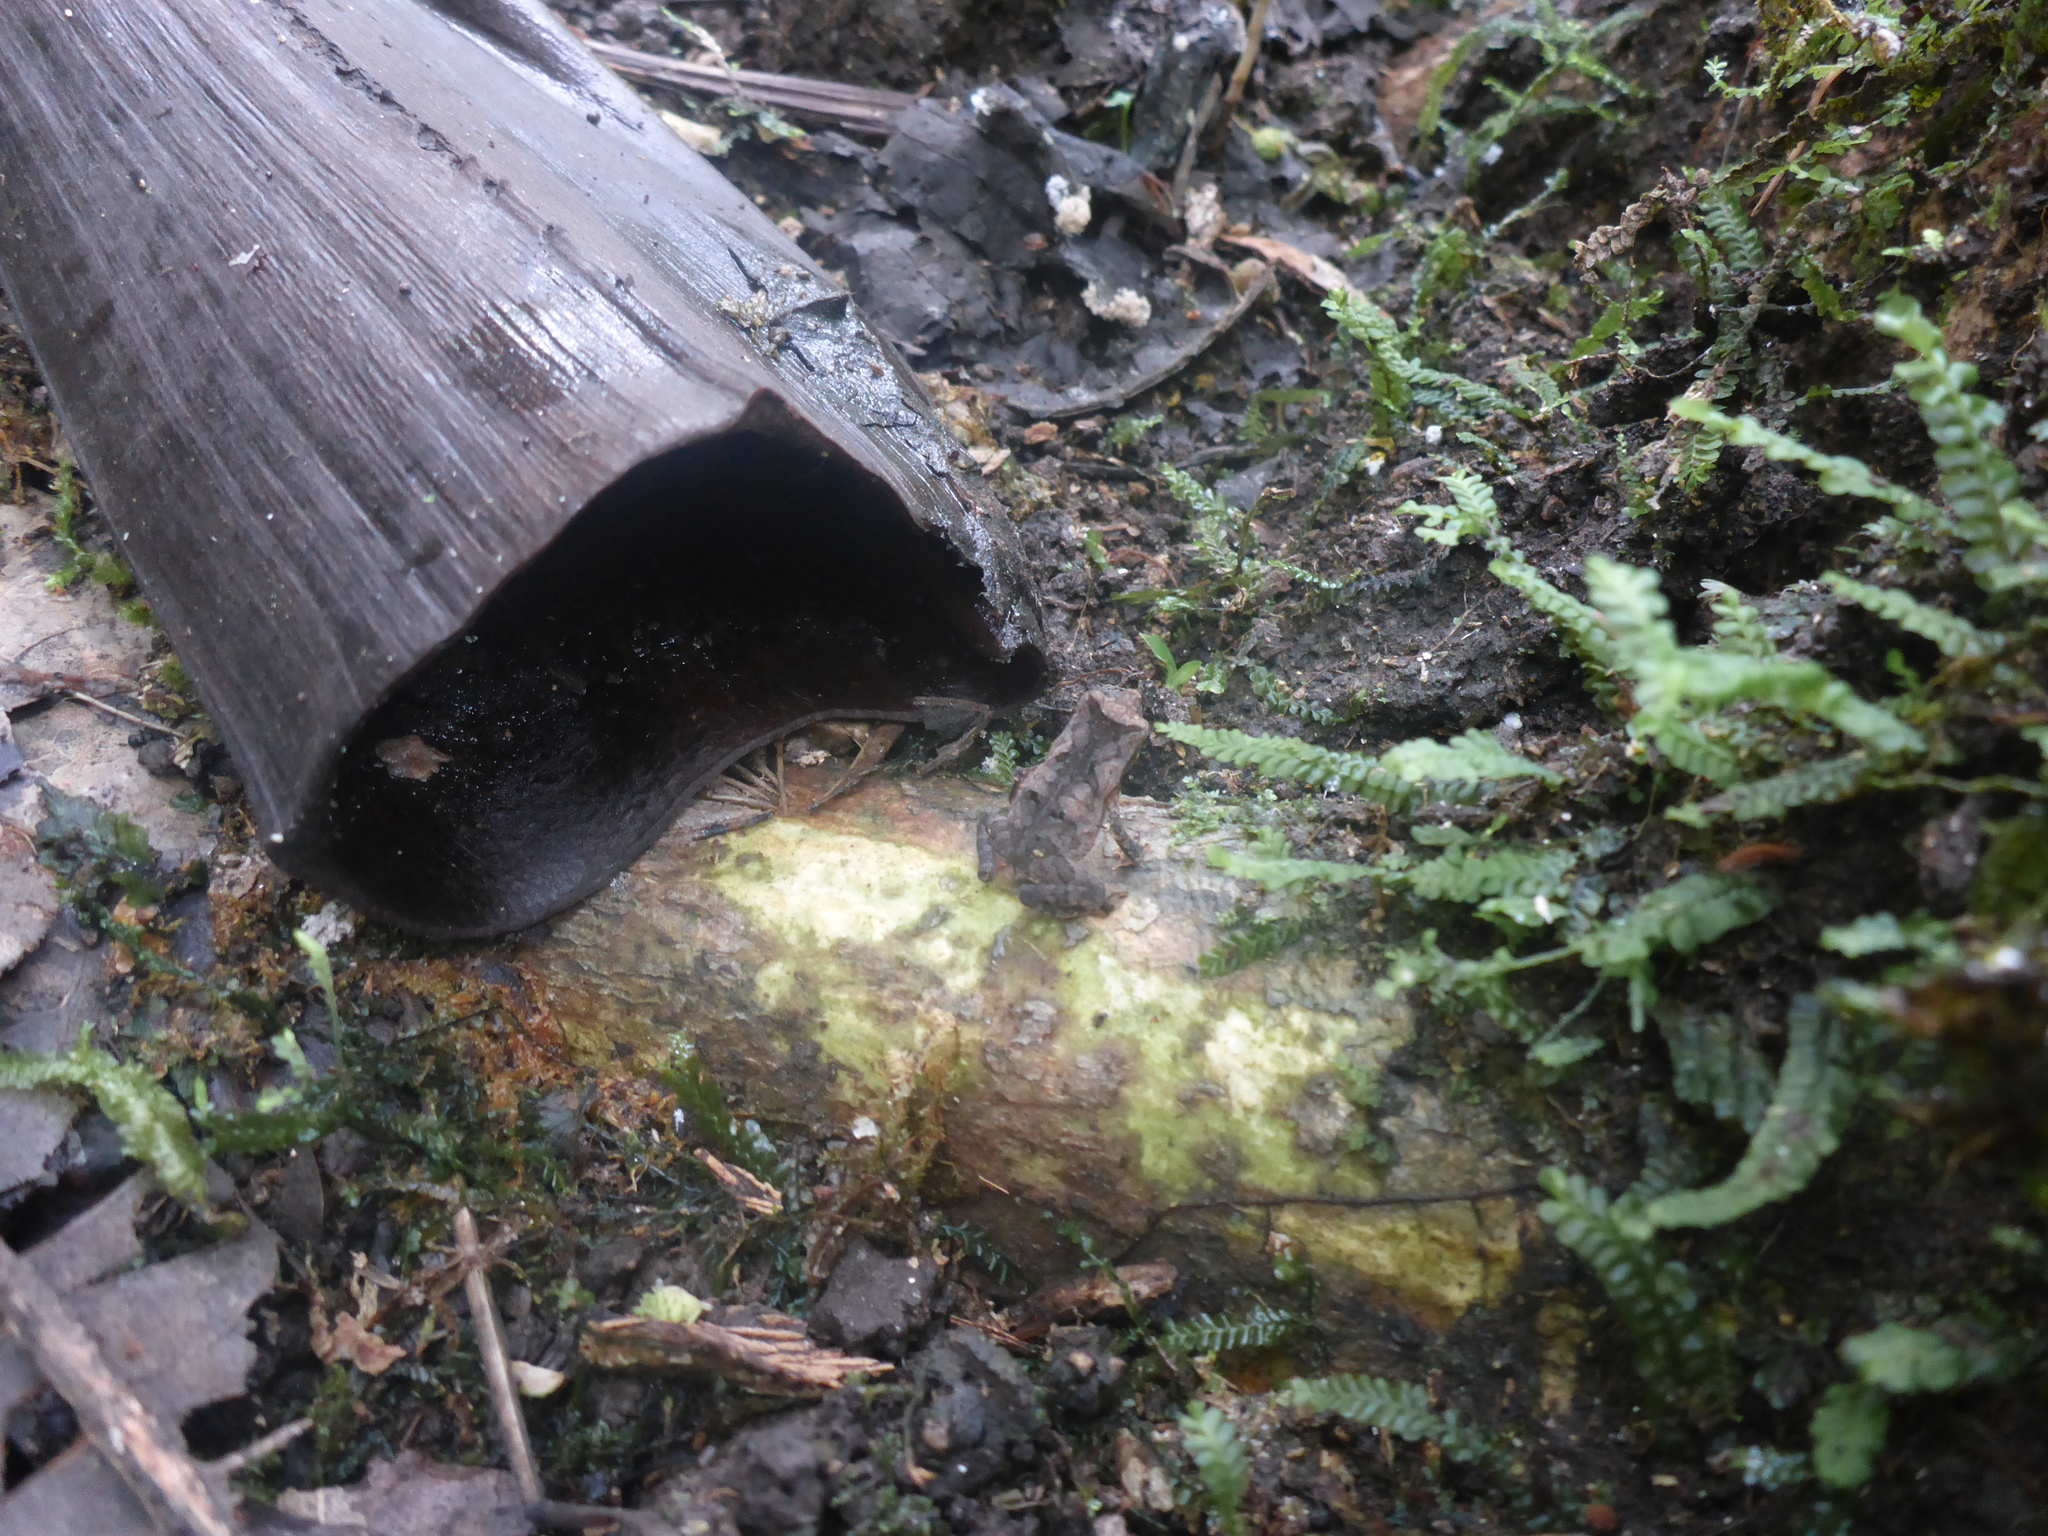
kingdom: Animalia
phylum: Chordata
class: Amphibia
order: Anura
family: Bufonidae
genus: Rhinella
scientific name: Rhinella margaritifera
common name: Mitred toad
